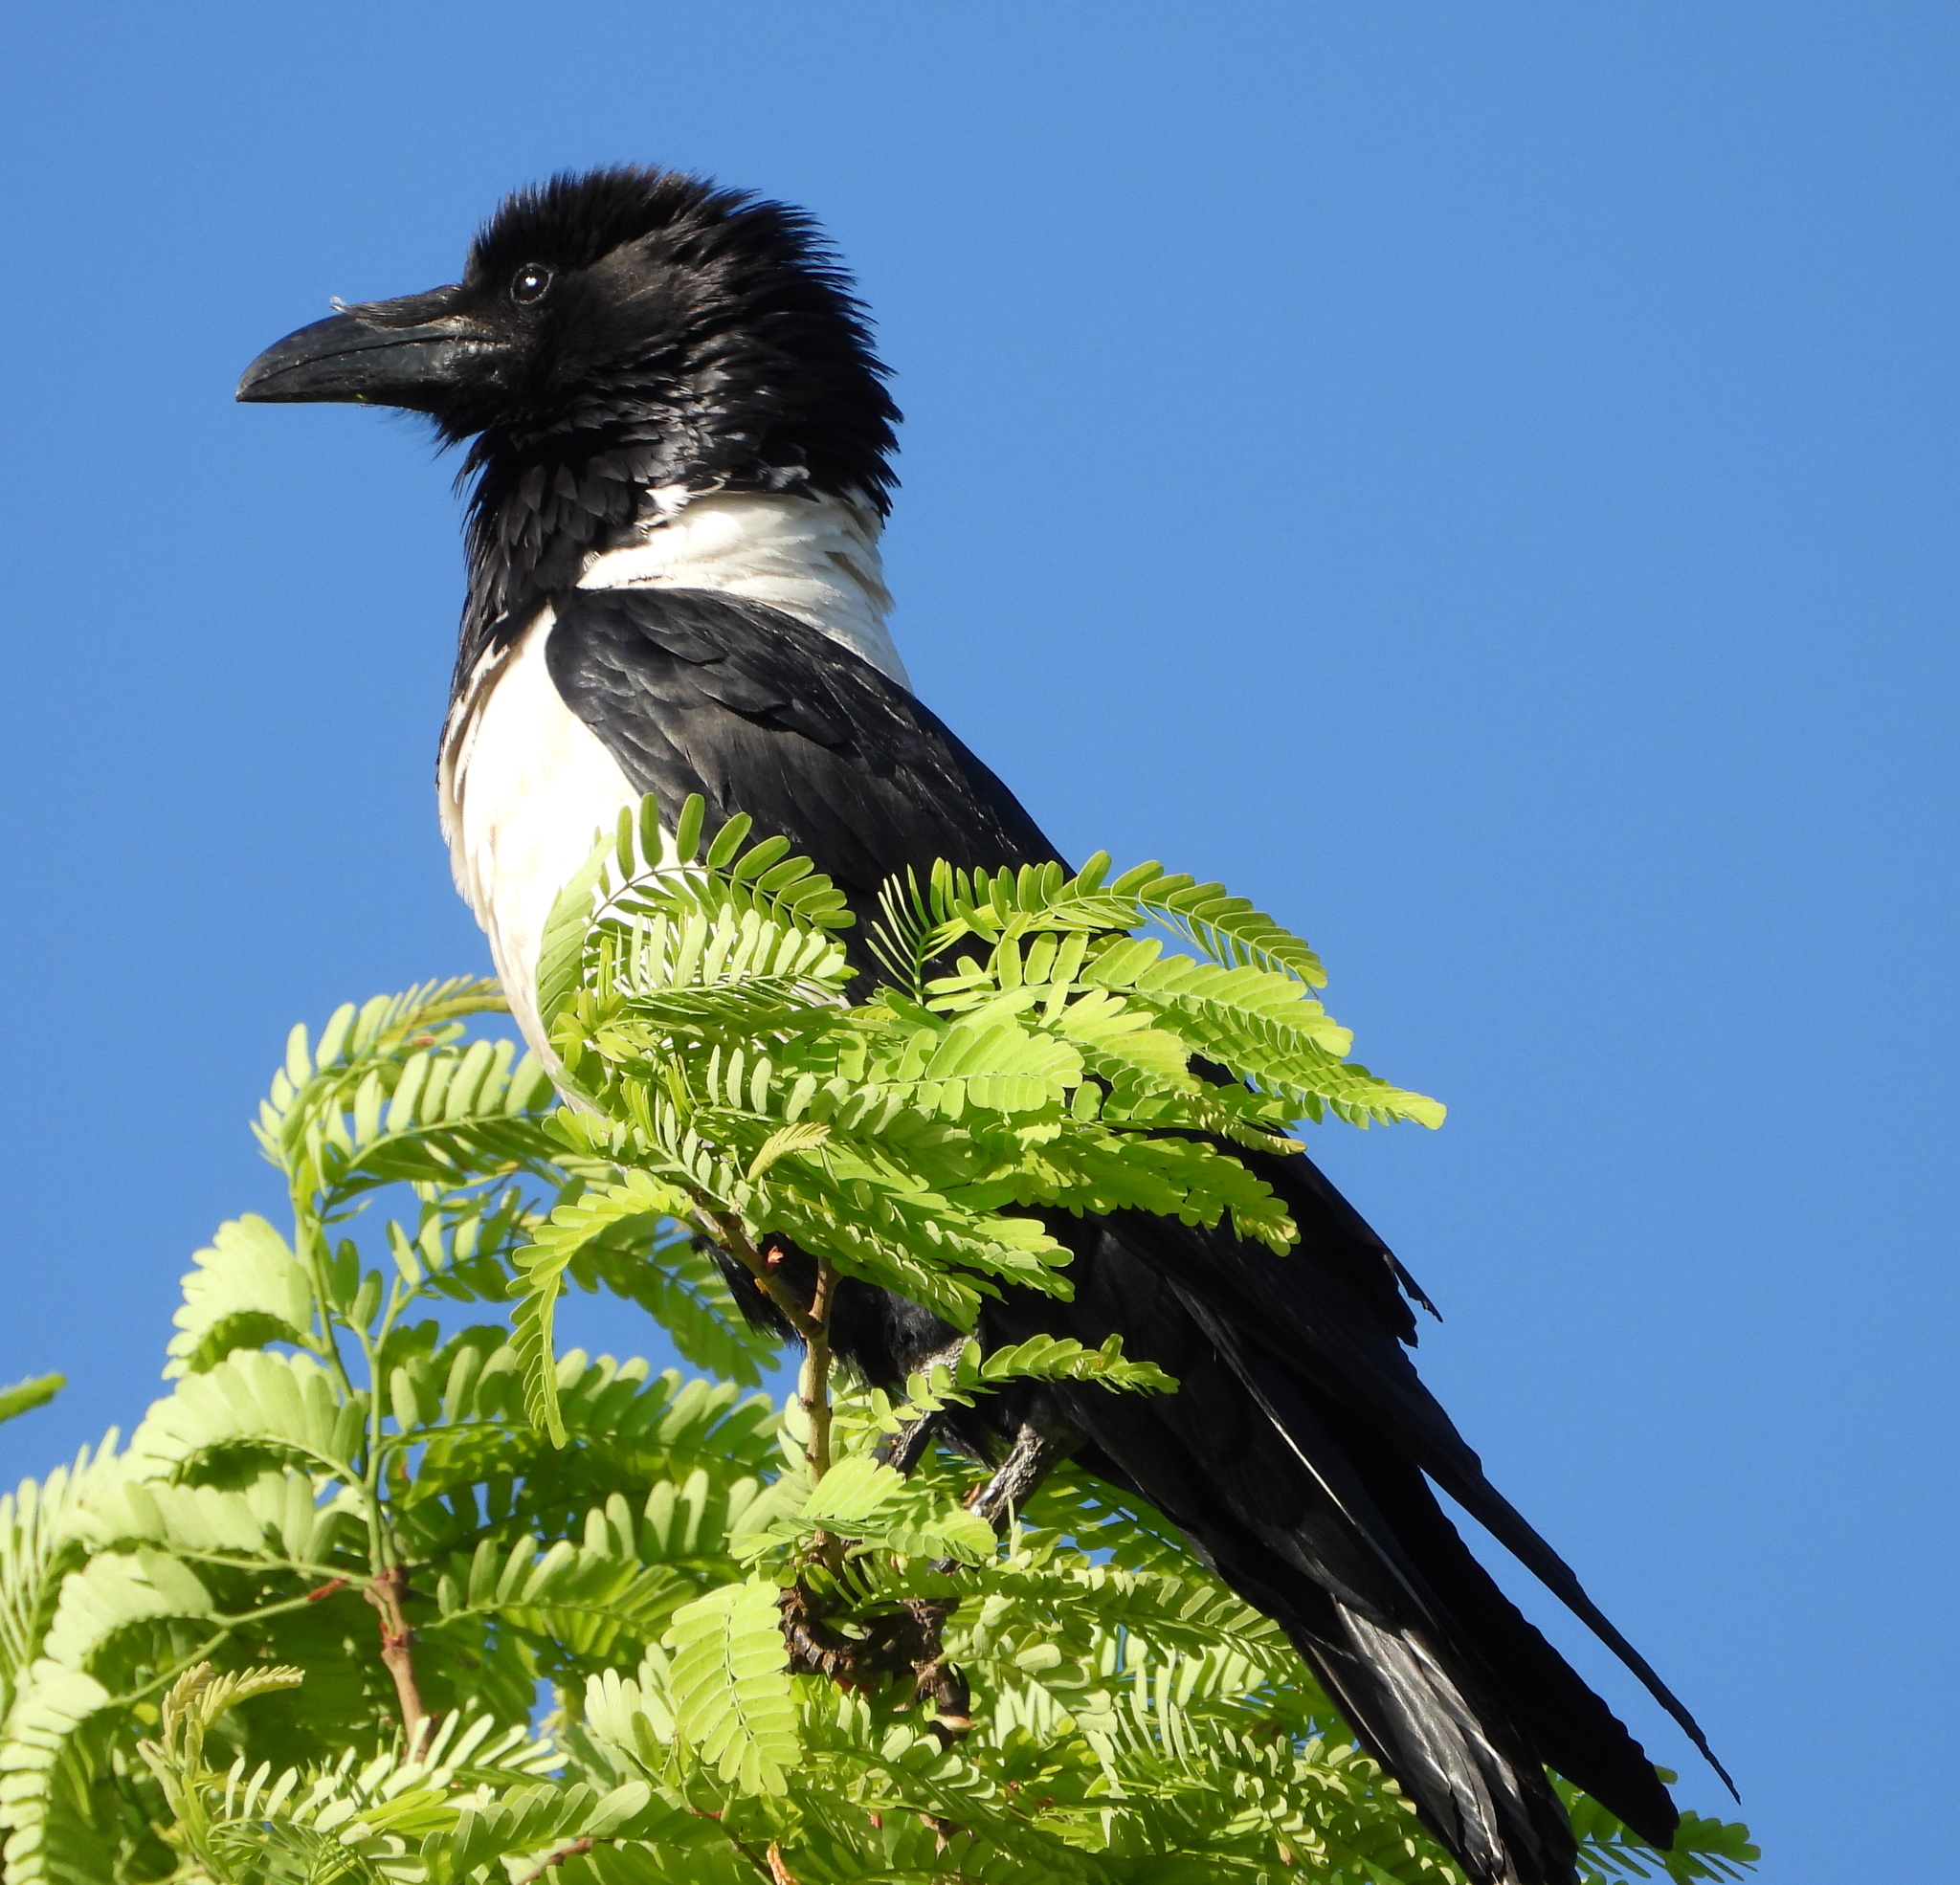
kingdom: Animalia
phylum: Chordata
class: Aves
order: Passeriformes
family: Corvidae
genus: Corvus
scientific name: Corvus albus
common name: Pied crow
